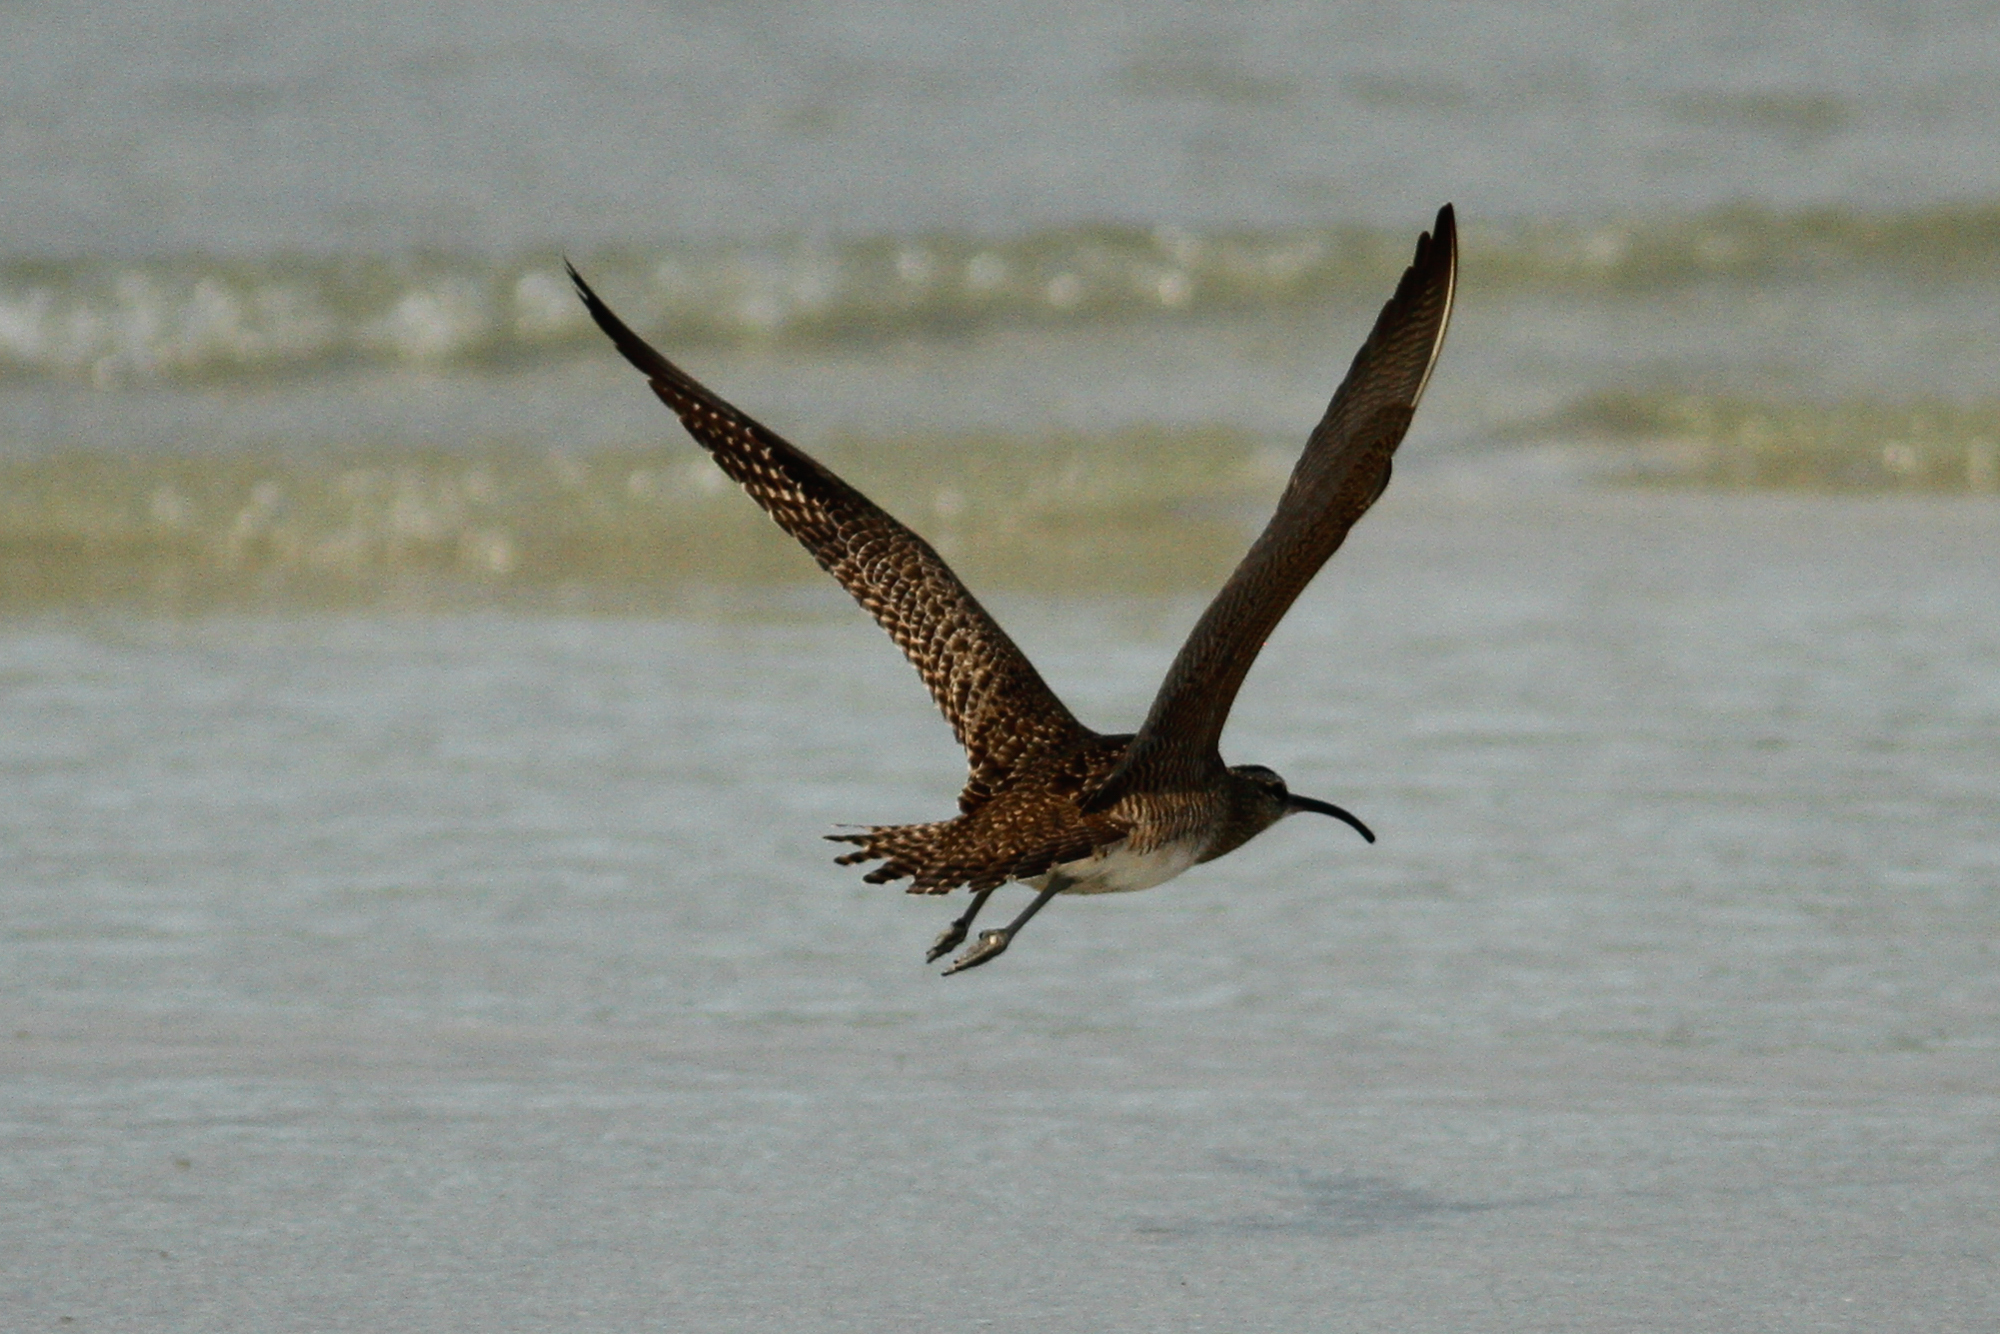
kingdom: Animalia
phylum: Chordata
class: Aves
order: Charadriiformes
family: Scolopacidae
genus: Numenius
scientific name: Numenius phaeopus
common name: Whimbrel
